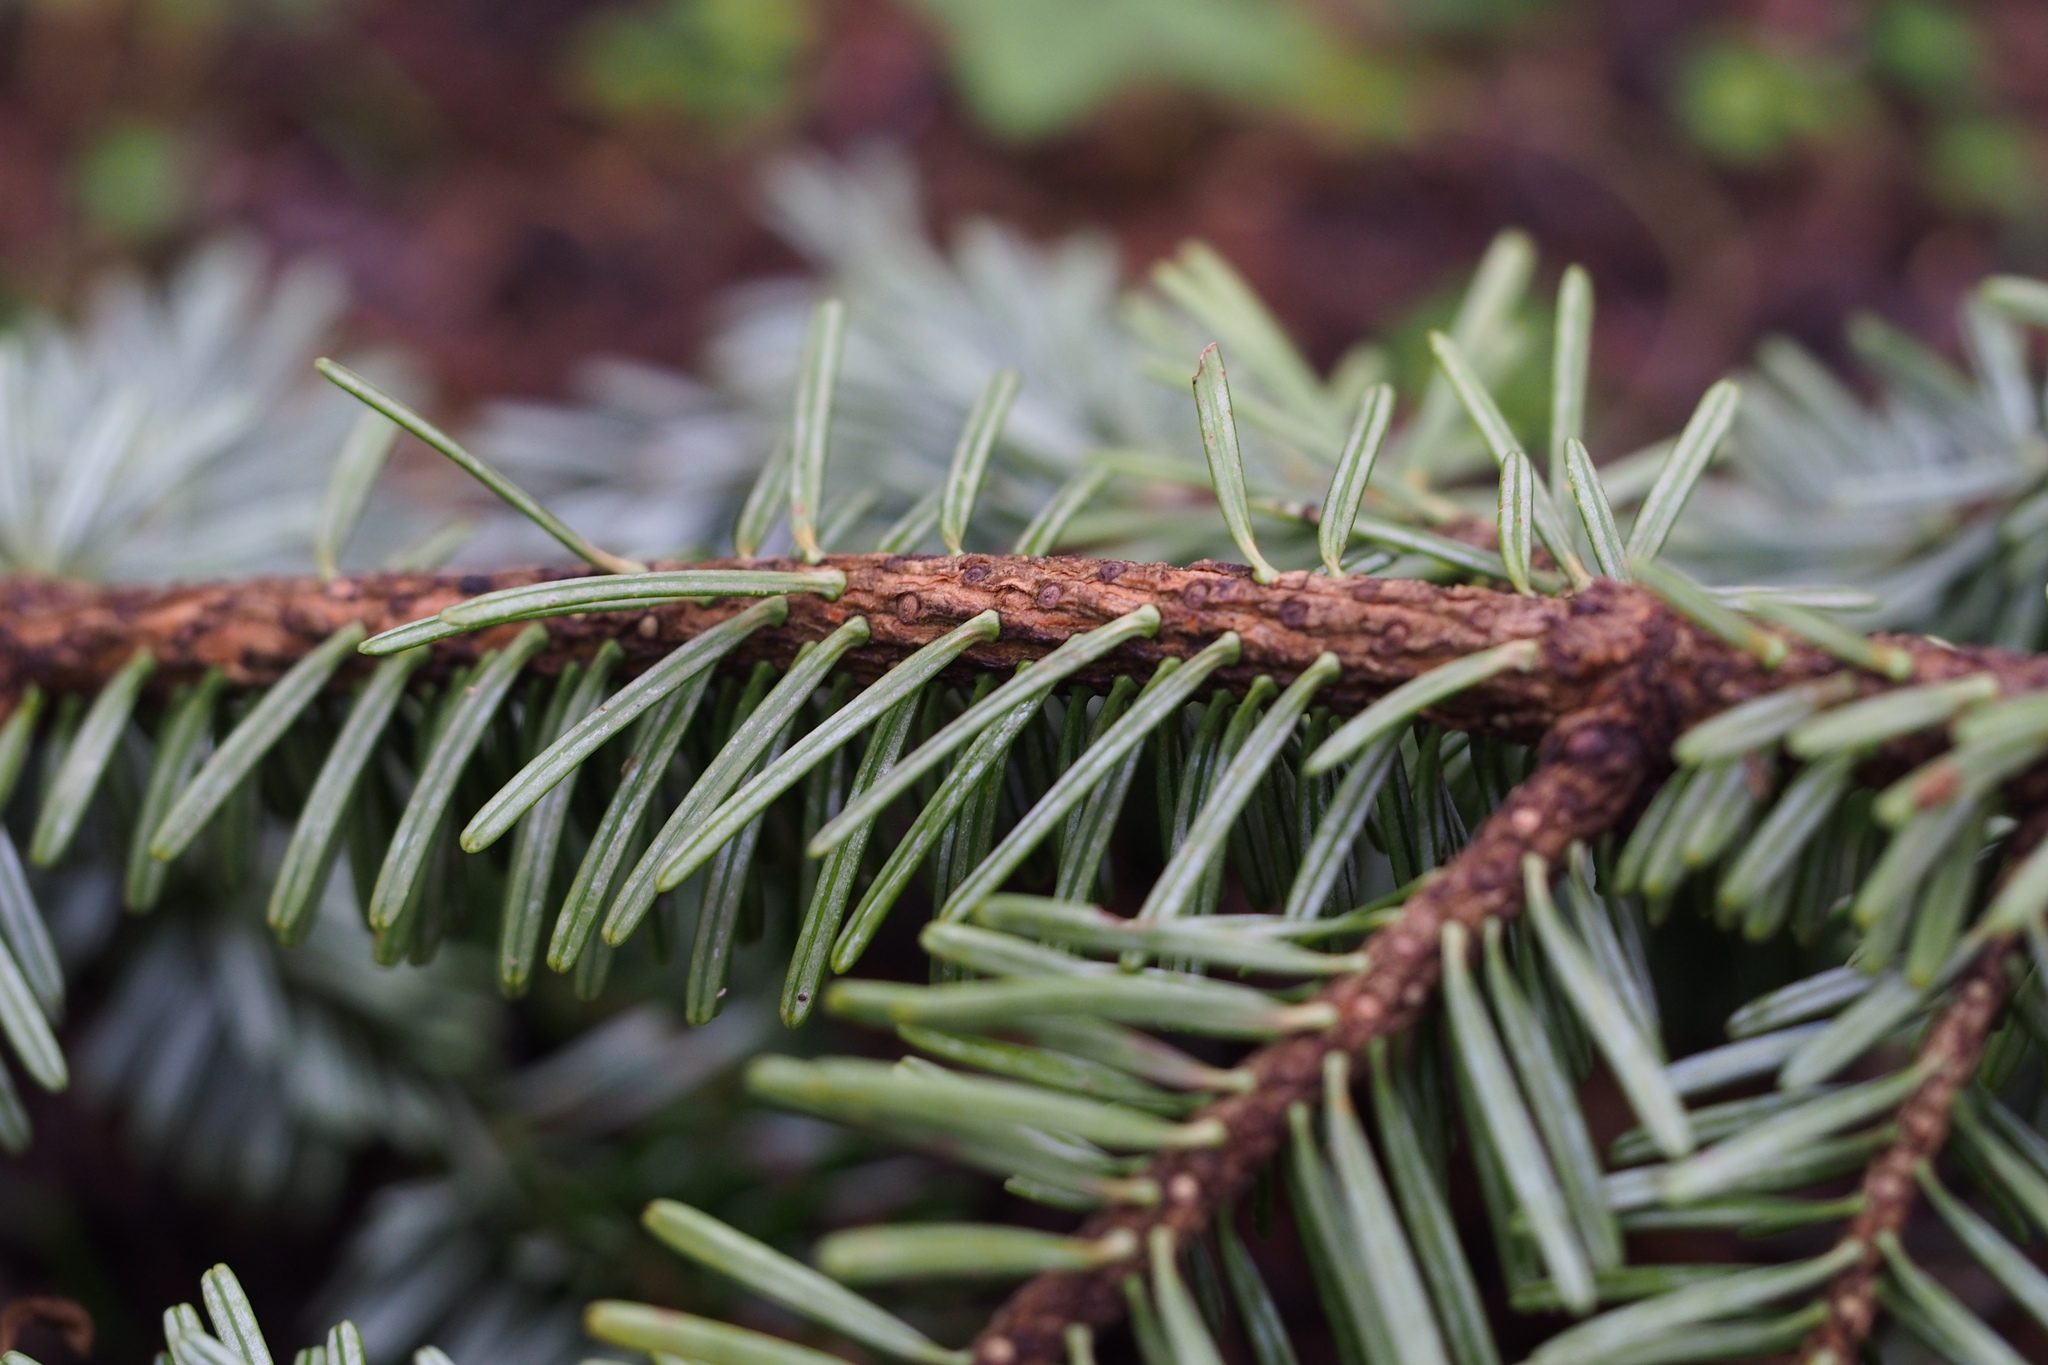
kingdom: Plantae
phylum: Tracheophyta
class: Pinopsida
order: Pinales
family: Pinaceae
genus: Abies
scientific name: Abies homolepis
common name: Nikko fir
